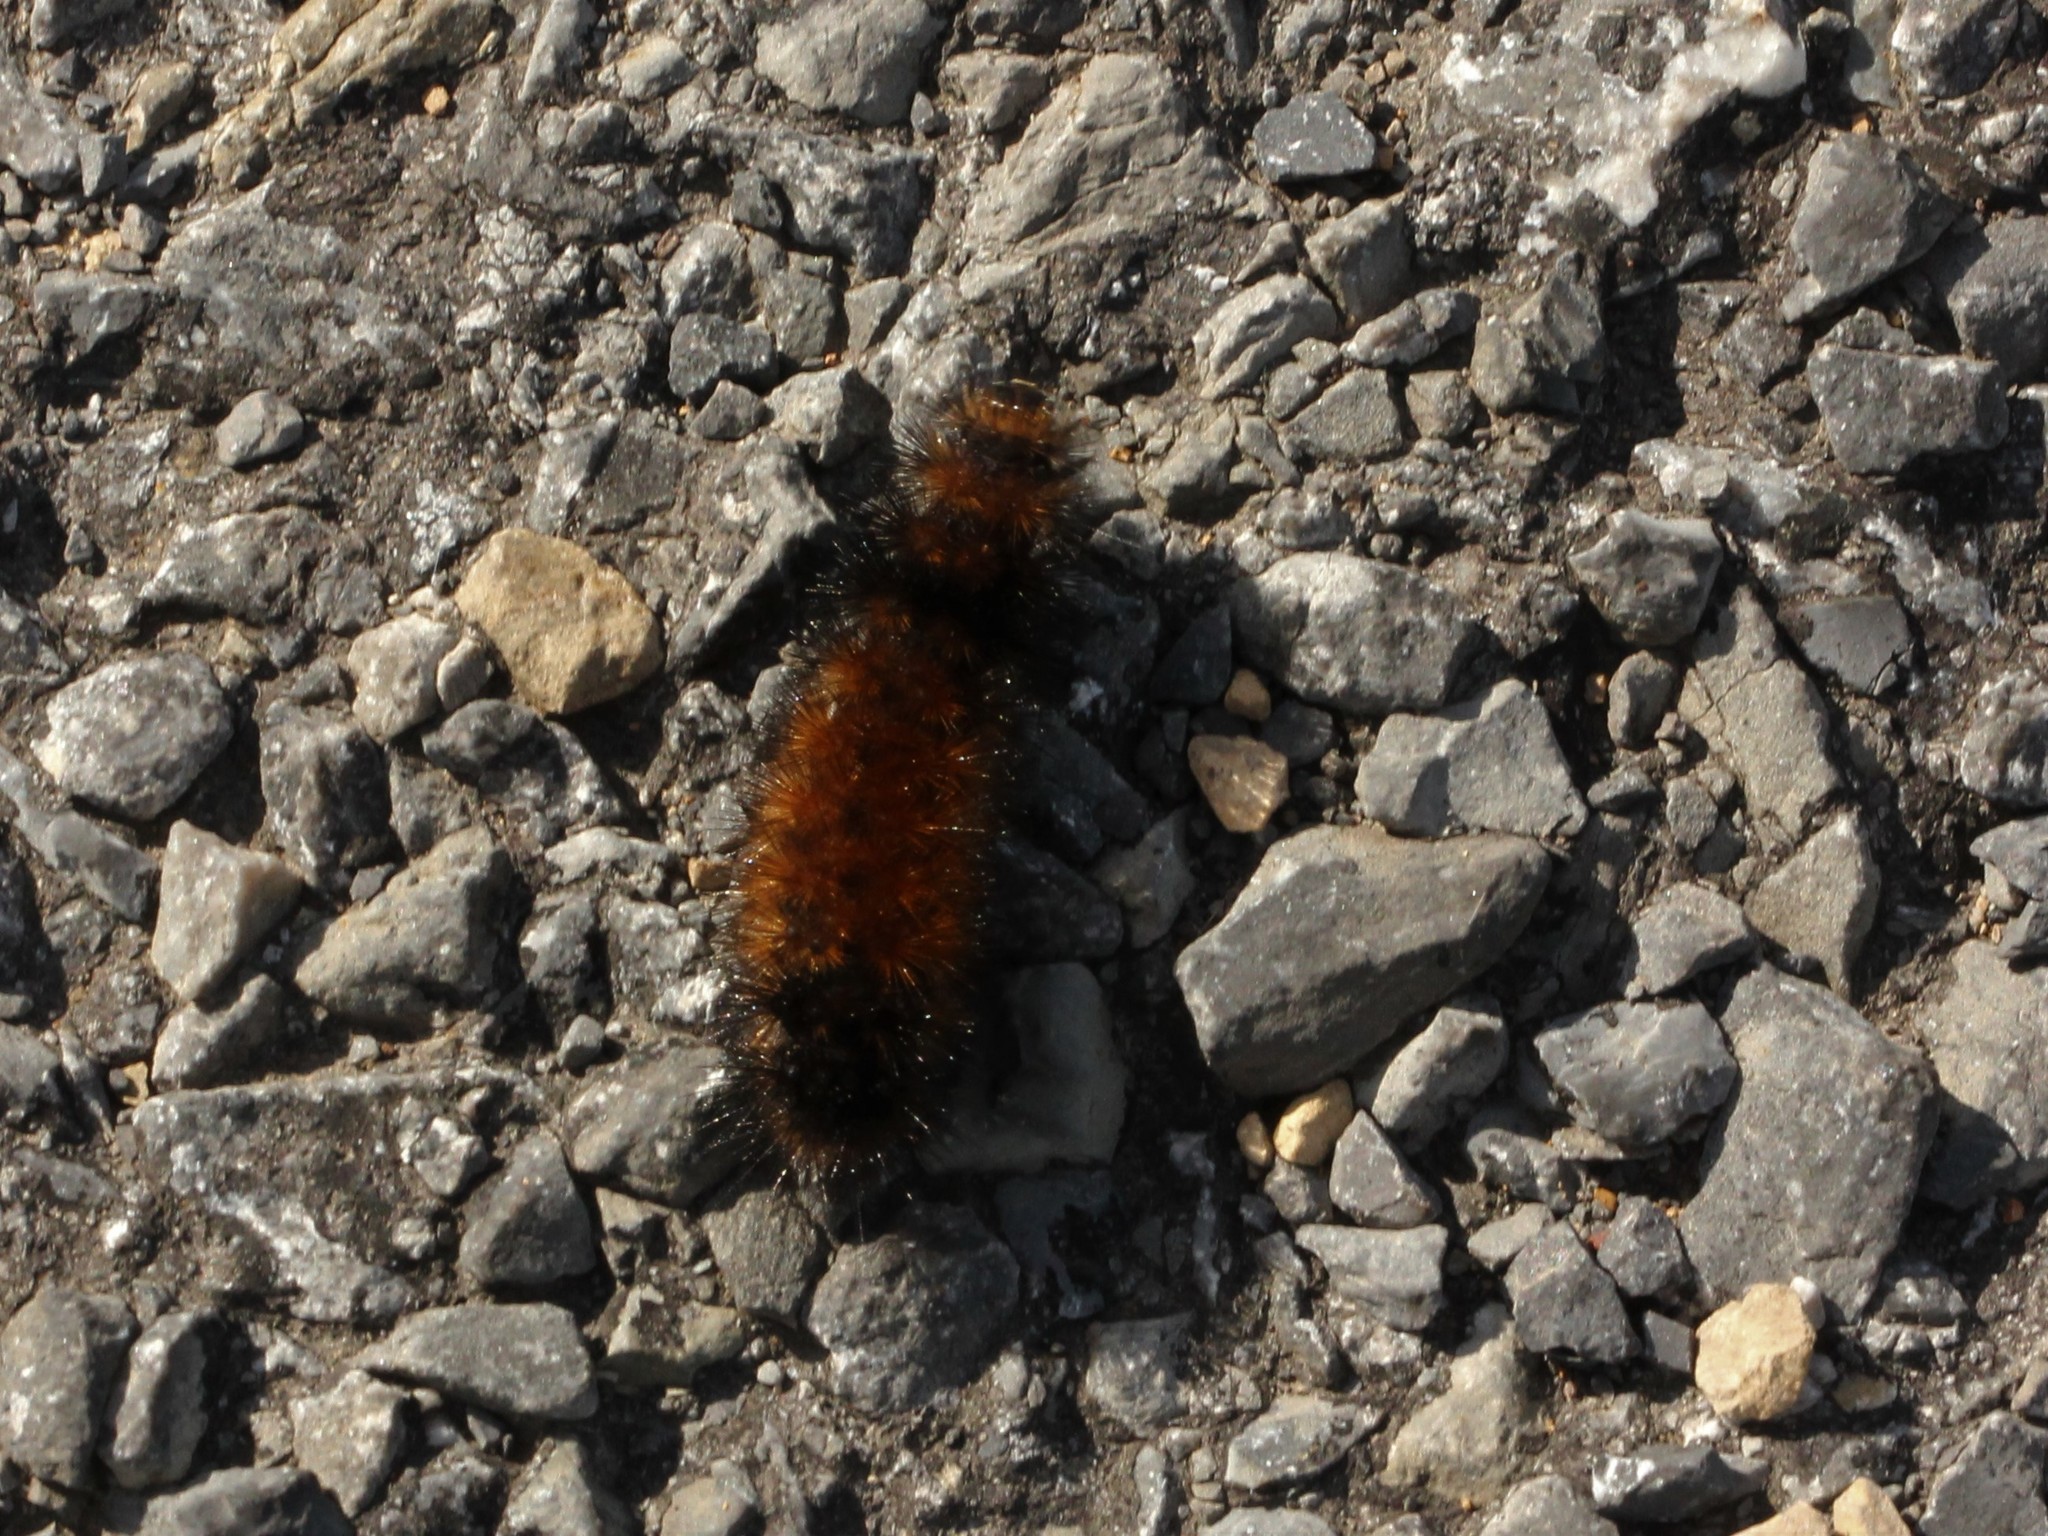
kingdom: Animalia
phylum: Arthropoda
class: Insecta
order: Lepidoptera
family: Erebidae
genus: Pyrrharctia
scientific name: Pyrrharctia isabella
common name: Isabella tiger moth
